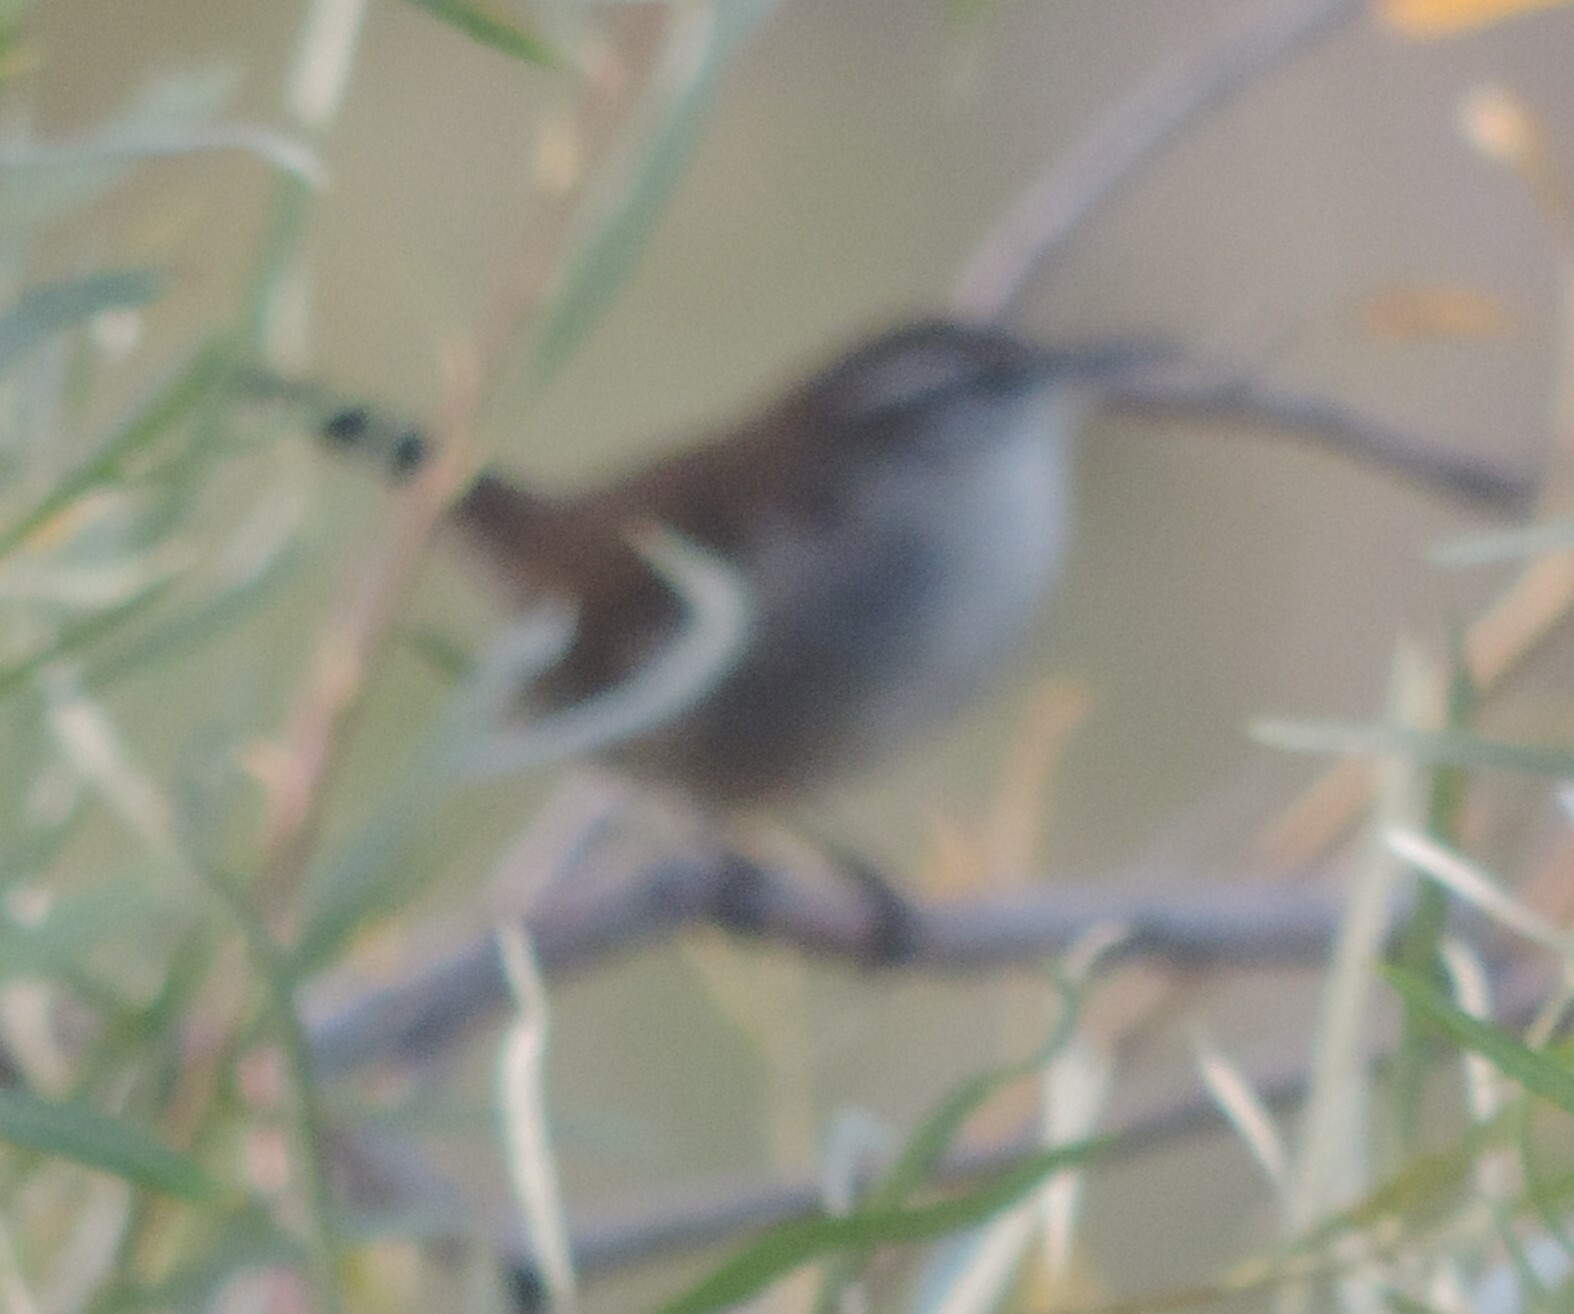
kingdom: Animalia
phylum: Chordata
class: Aves
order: Passeriformes
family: Troglodytidae
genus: Thryomanes
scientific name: Thryomanes bewickii
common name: Bewick's wren
